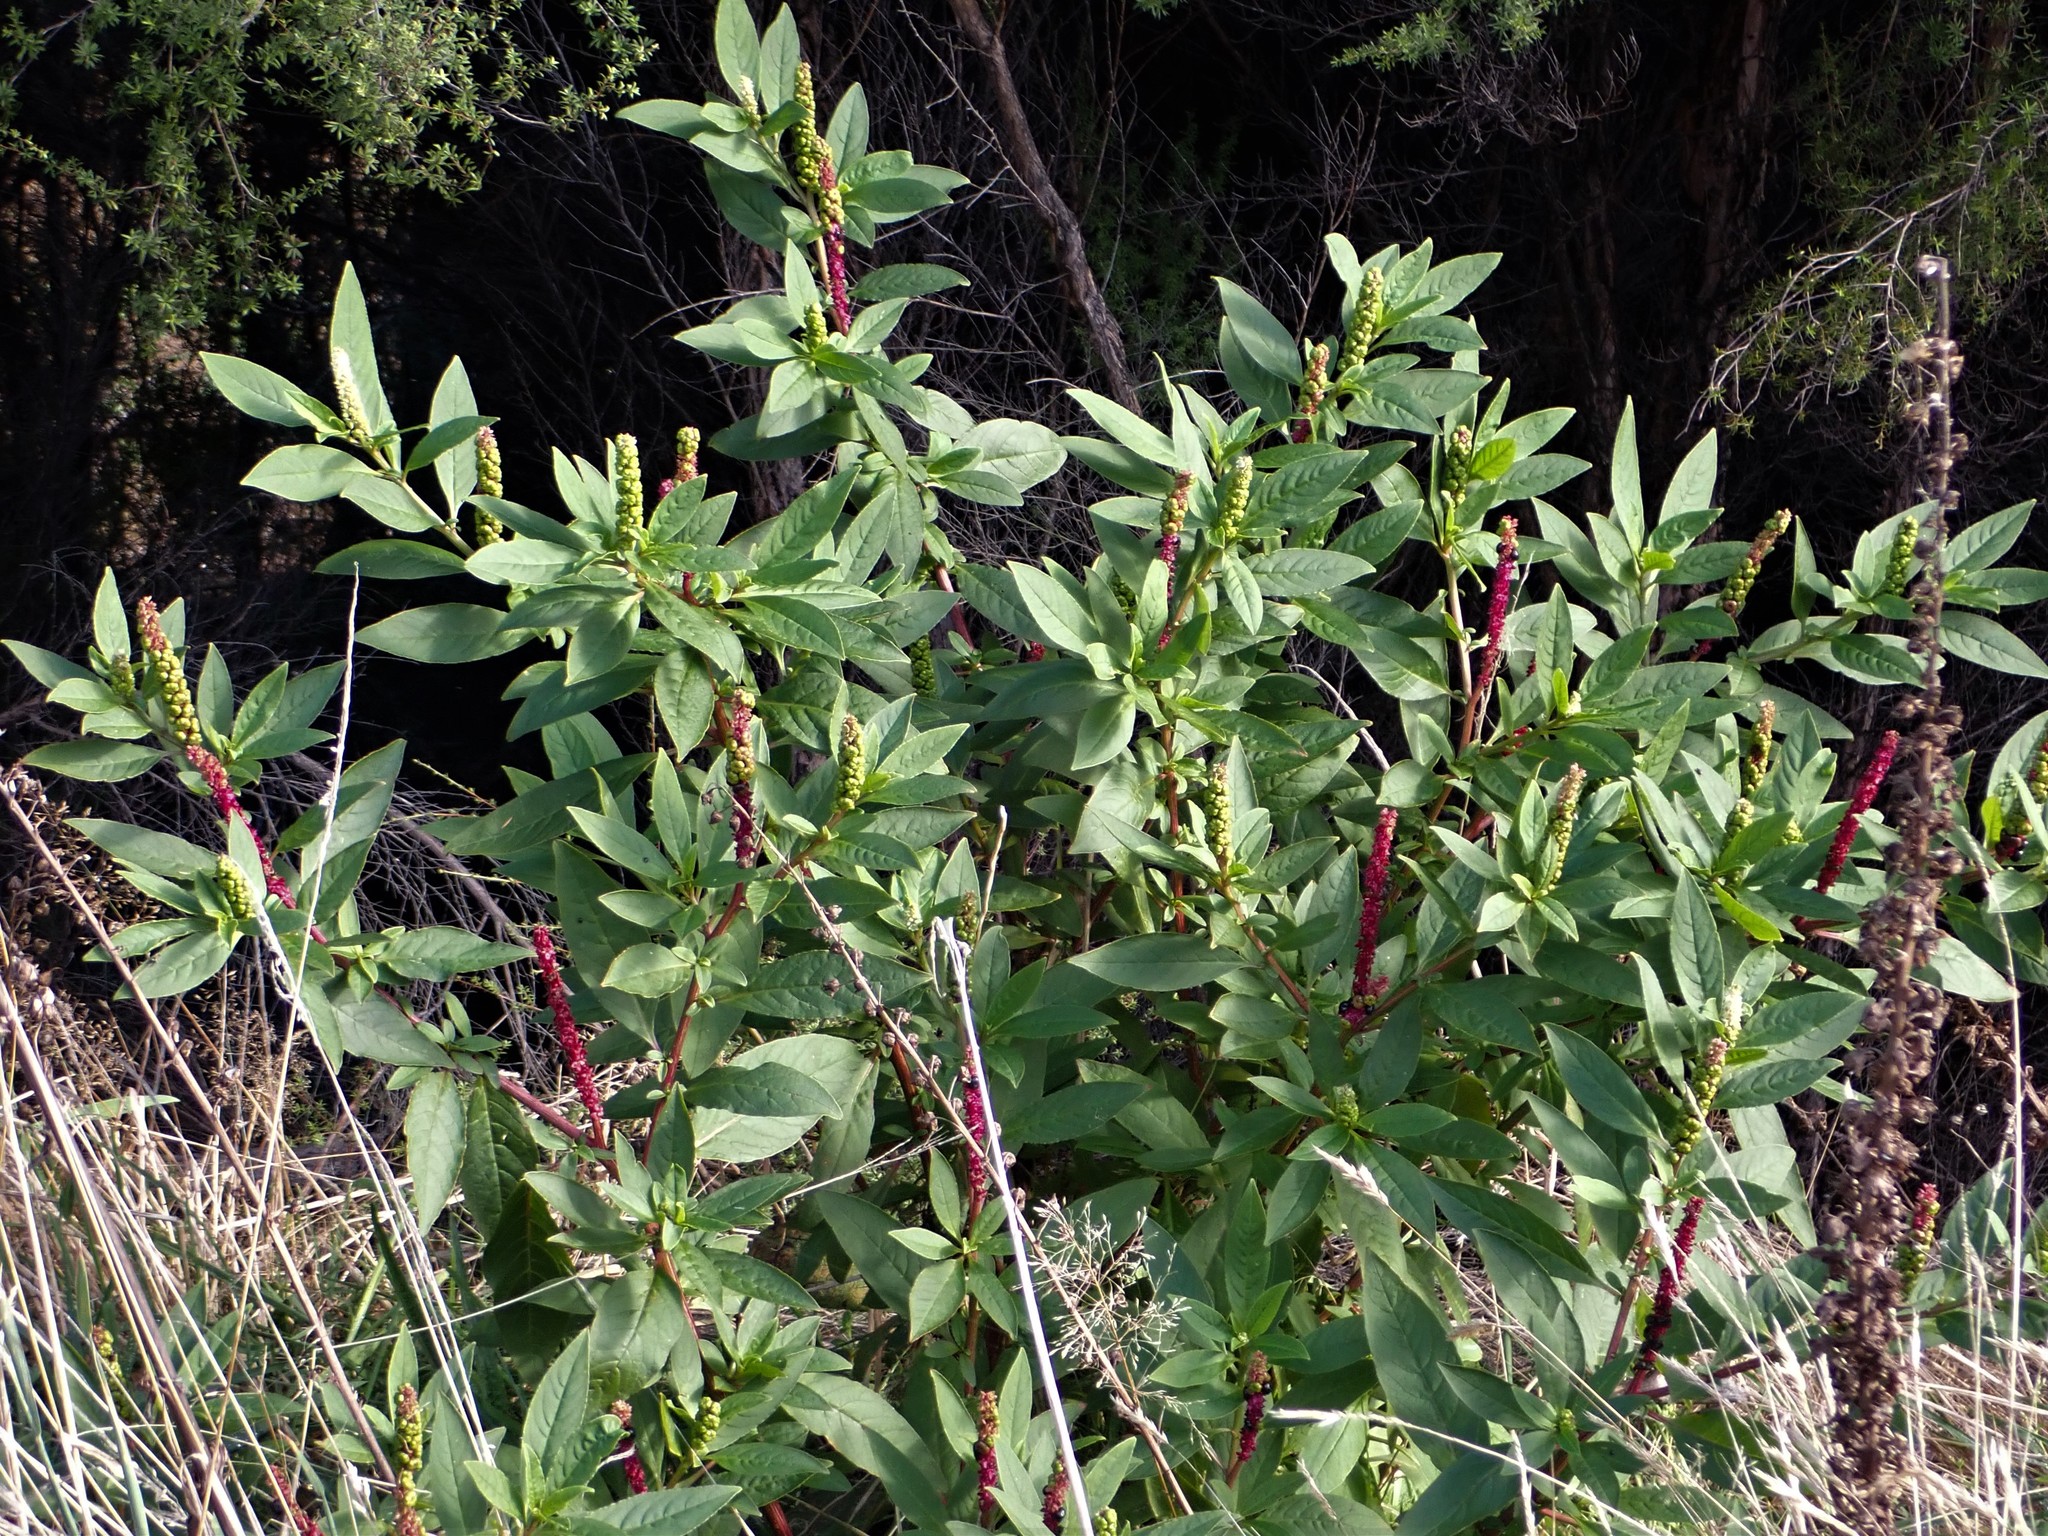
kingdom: Plantae
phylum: Tracheophyta
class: Magnoliopsida
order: Caryophyllales
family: Phytolaccaceae
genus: Phytolacca
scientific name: Phytolacca icosandra
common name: Button pokeweed
